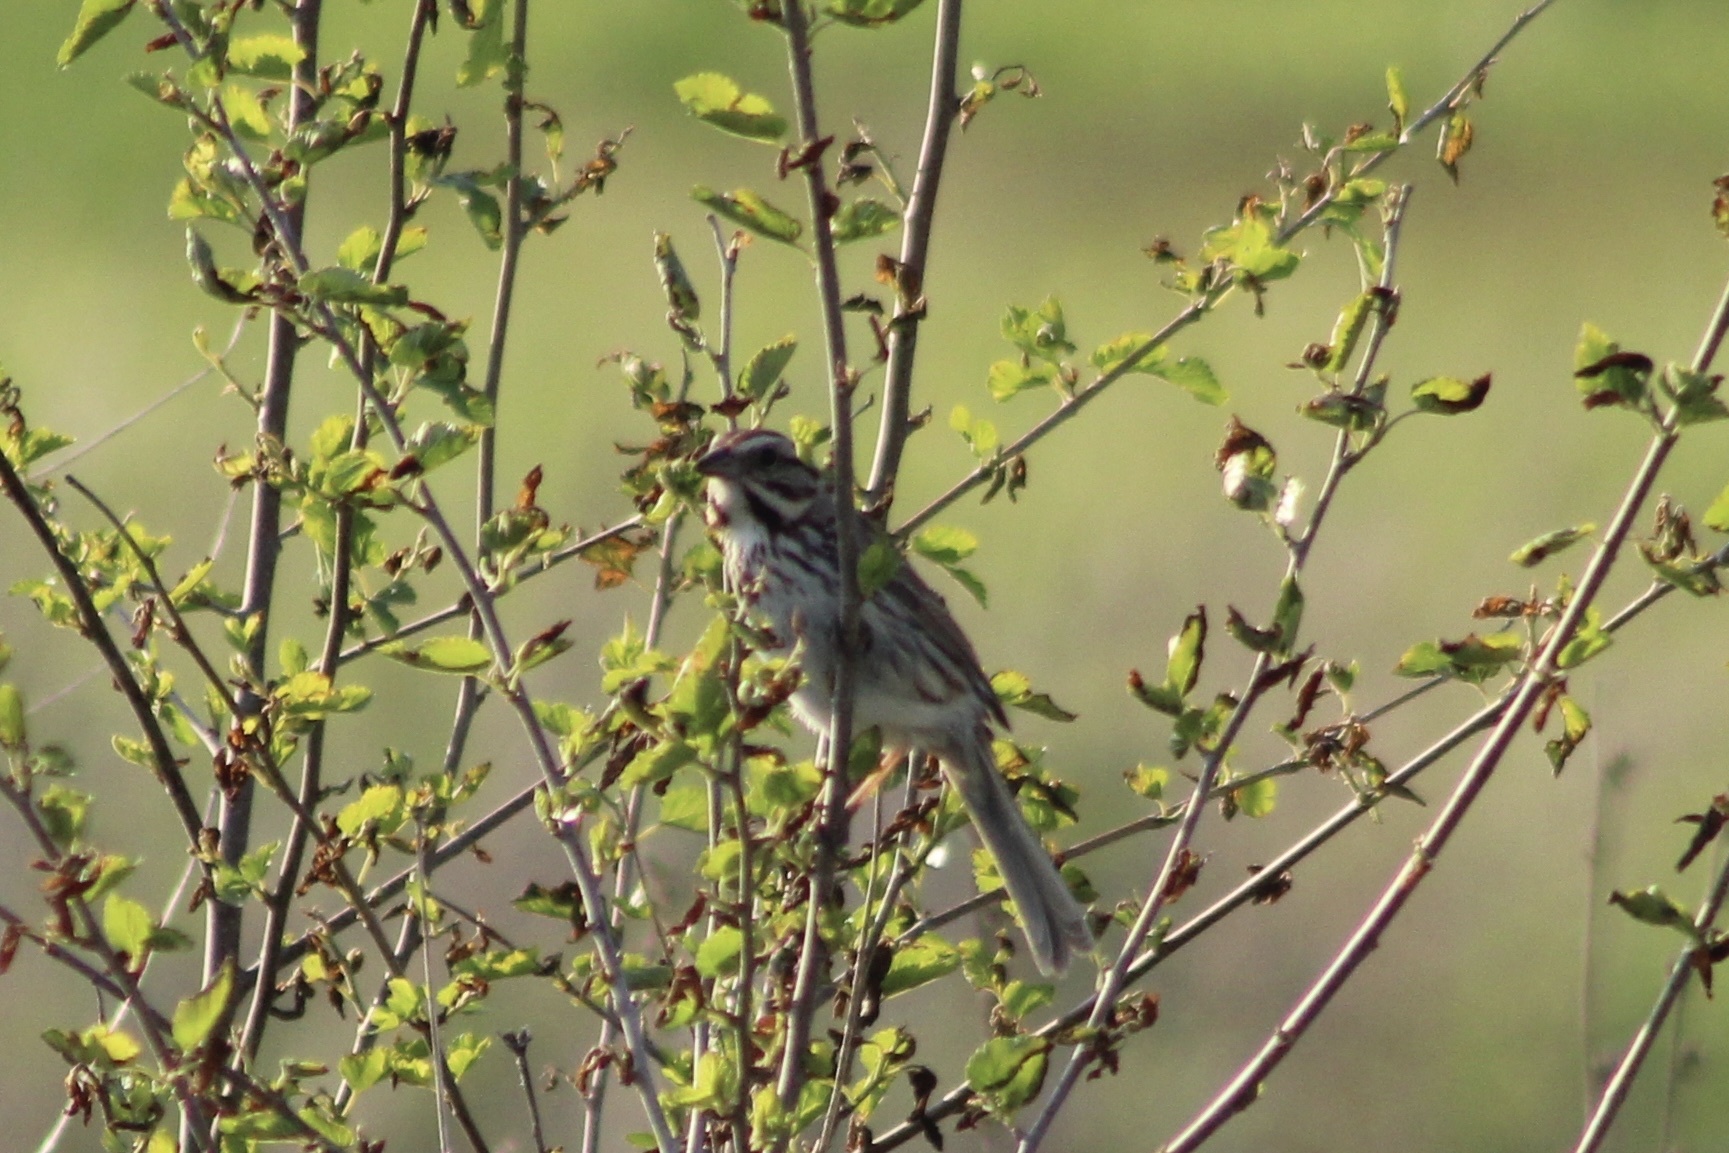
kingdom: Animalia
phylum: Chordata
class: Aves
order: Passeriformes
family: Passerellidae
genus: Melospiza
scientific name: Melospiza melodia
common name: Song sparrow
